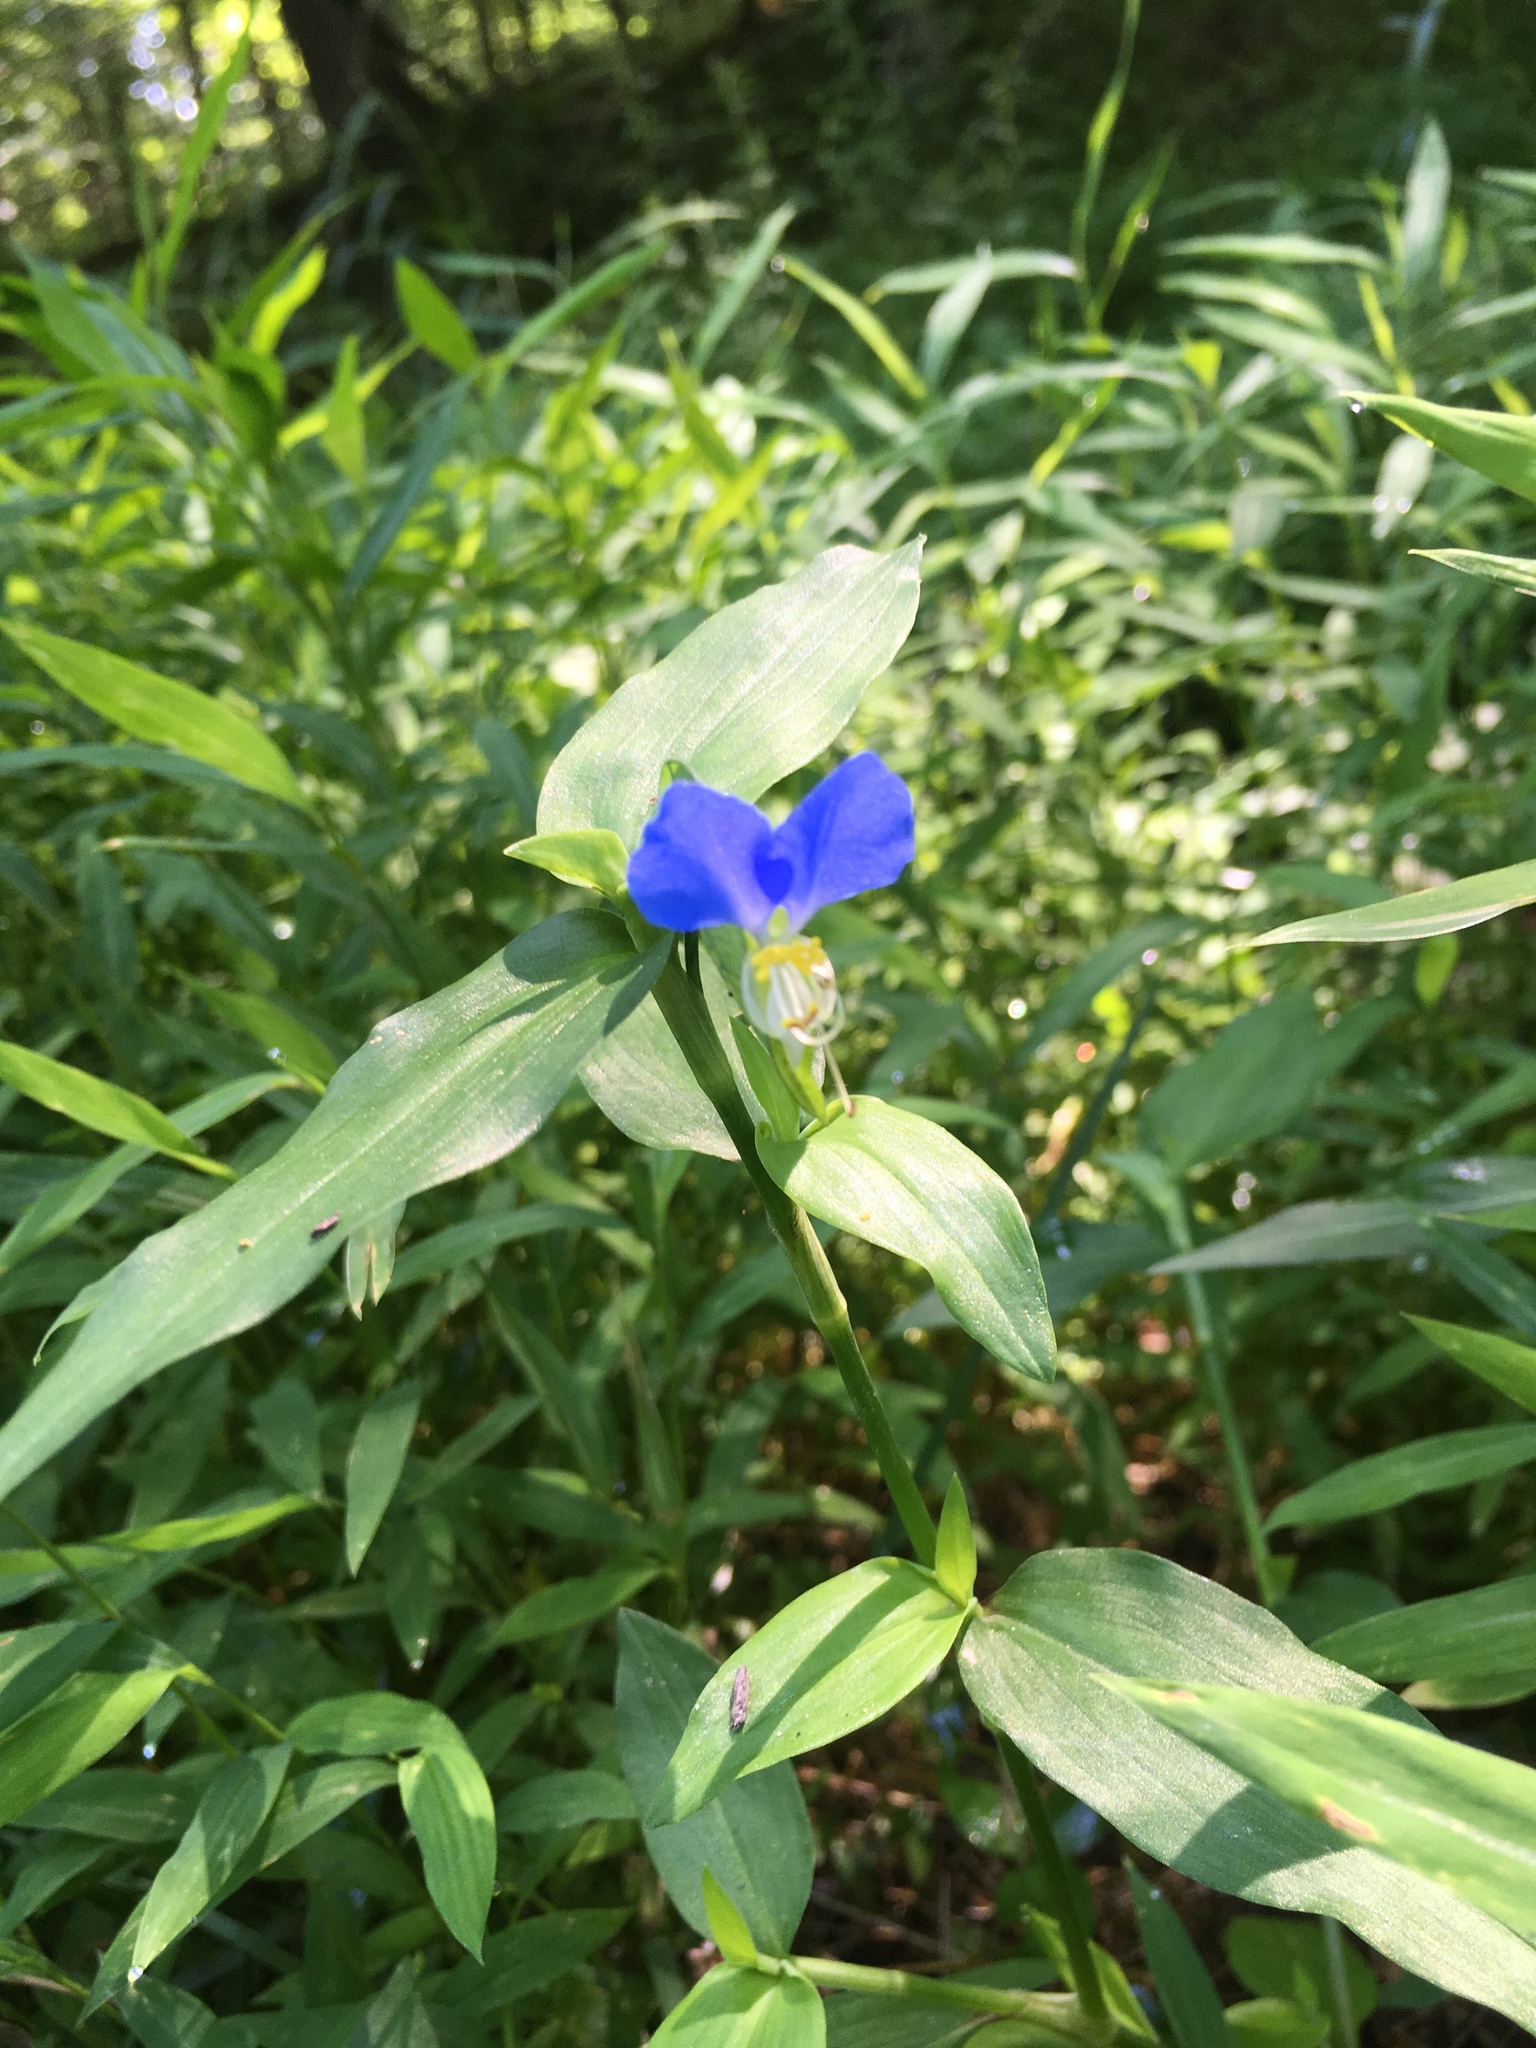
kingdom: Plantae
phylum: Tracheophyta
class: Liliopsida
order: Commelinales
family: Commelinaceae
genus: Commelina
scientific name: Commelina communis
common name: Asiatic dayflower
